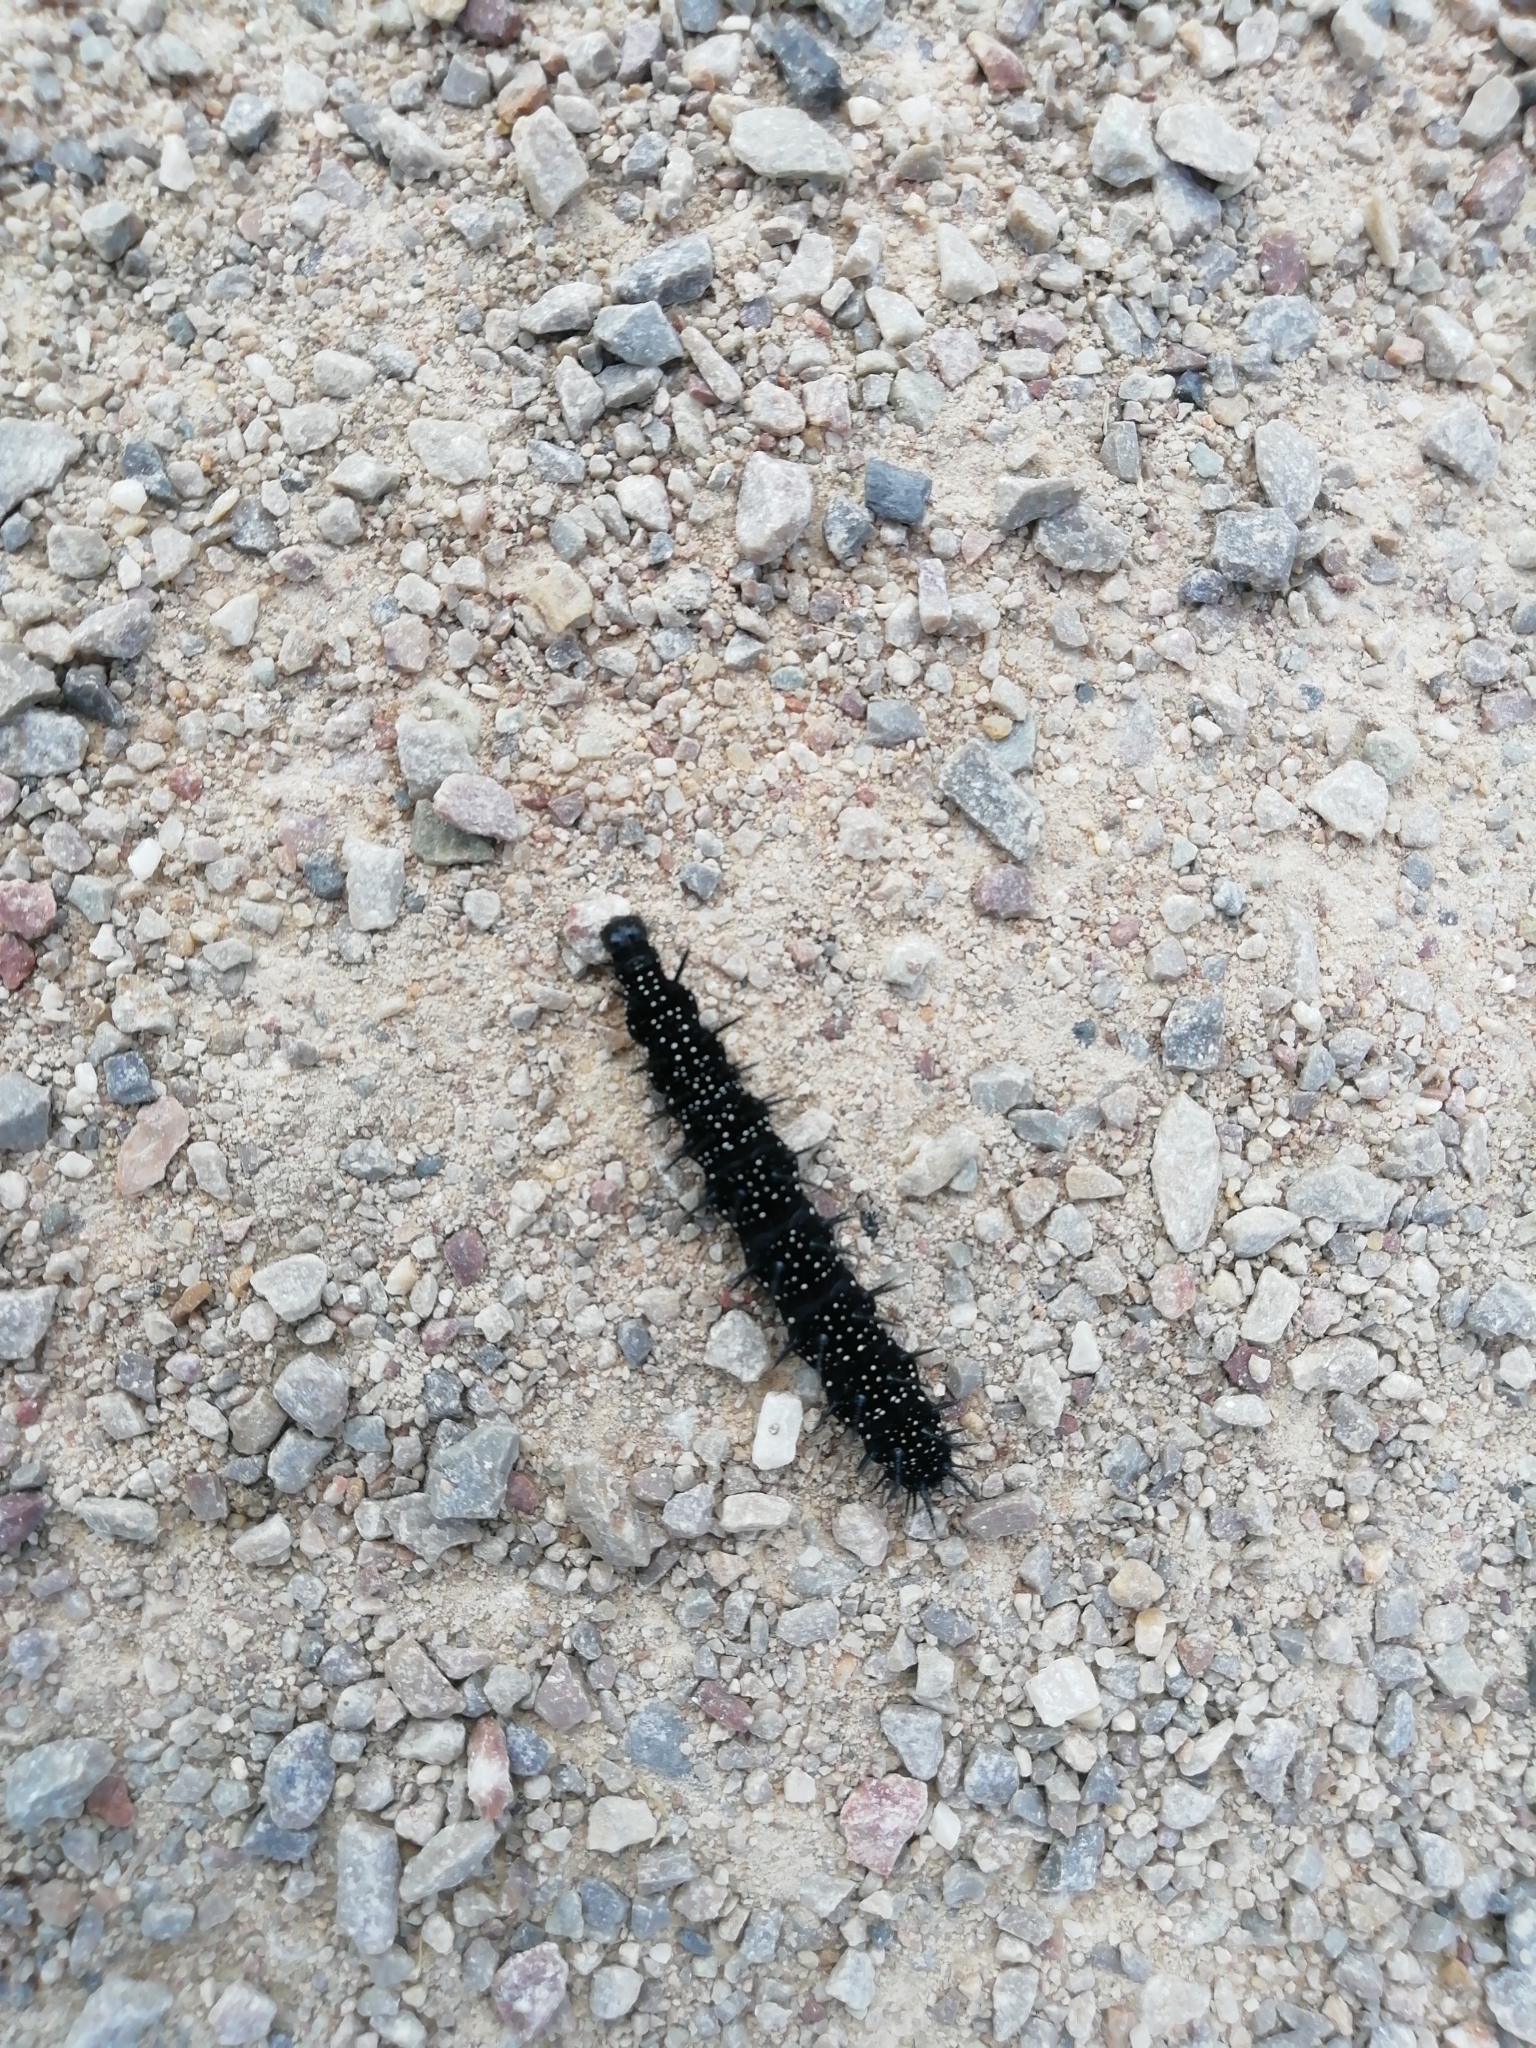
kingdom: Animalia
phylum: Arthropoda
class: Insecta
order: Lepidoptera
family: Nymphalidae
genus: Aglais
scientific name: Aglais io
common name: Peacock
